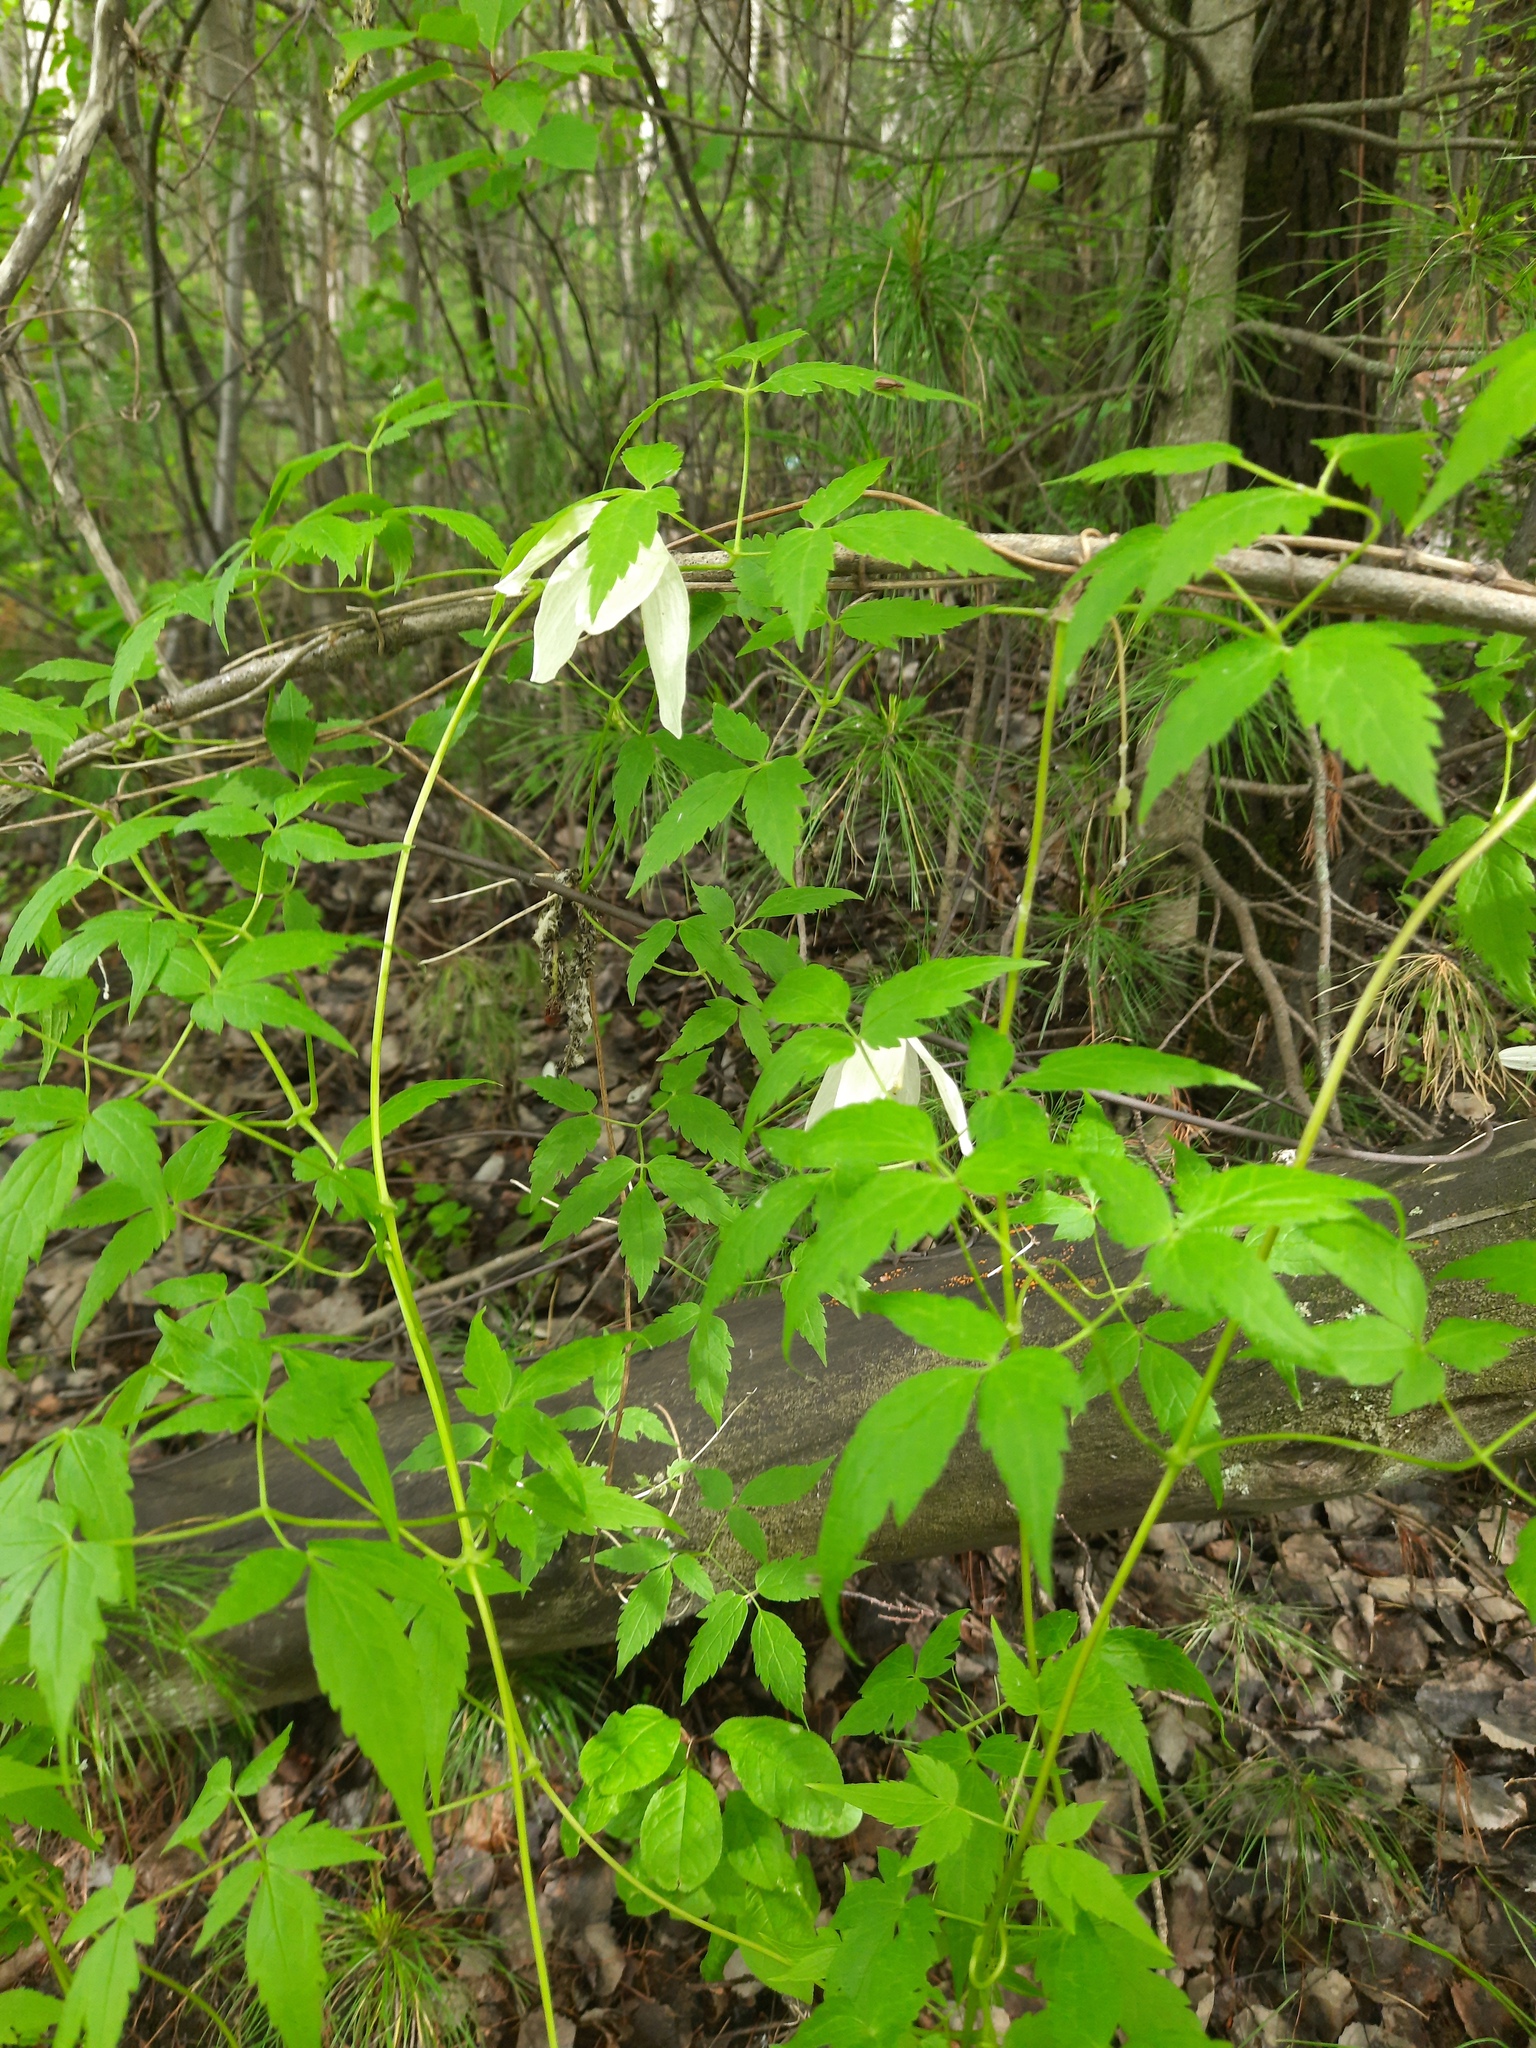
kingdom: Plantae
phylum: Tracheophyta
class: Magnoliopsida
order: Ranunculales
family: Ranunculaceae
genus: Clematis
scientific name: Clematis sibirica
